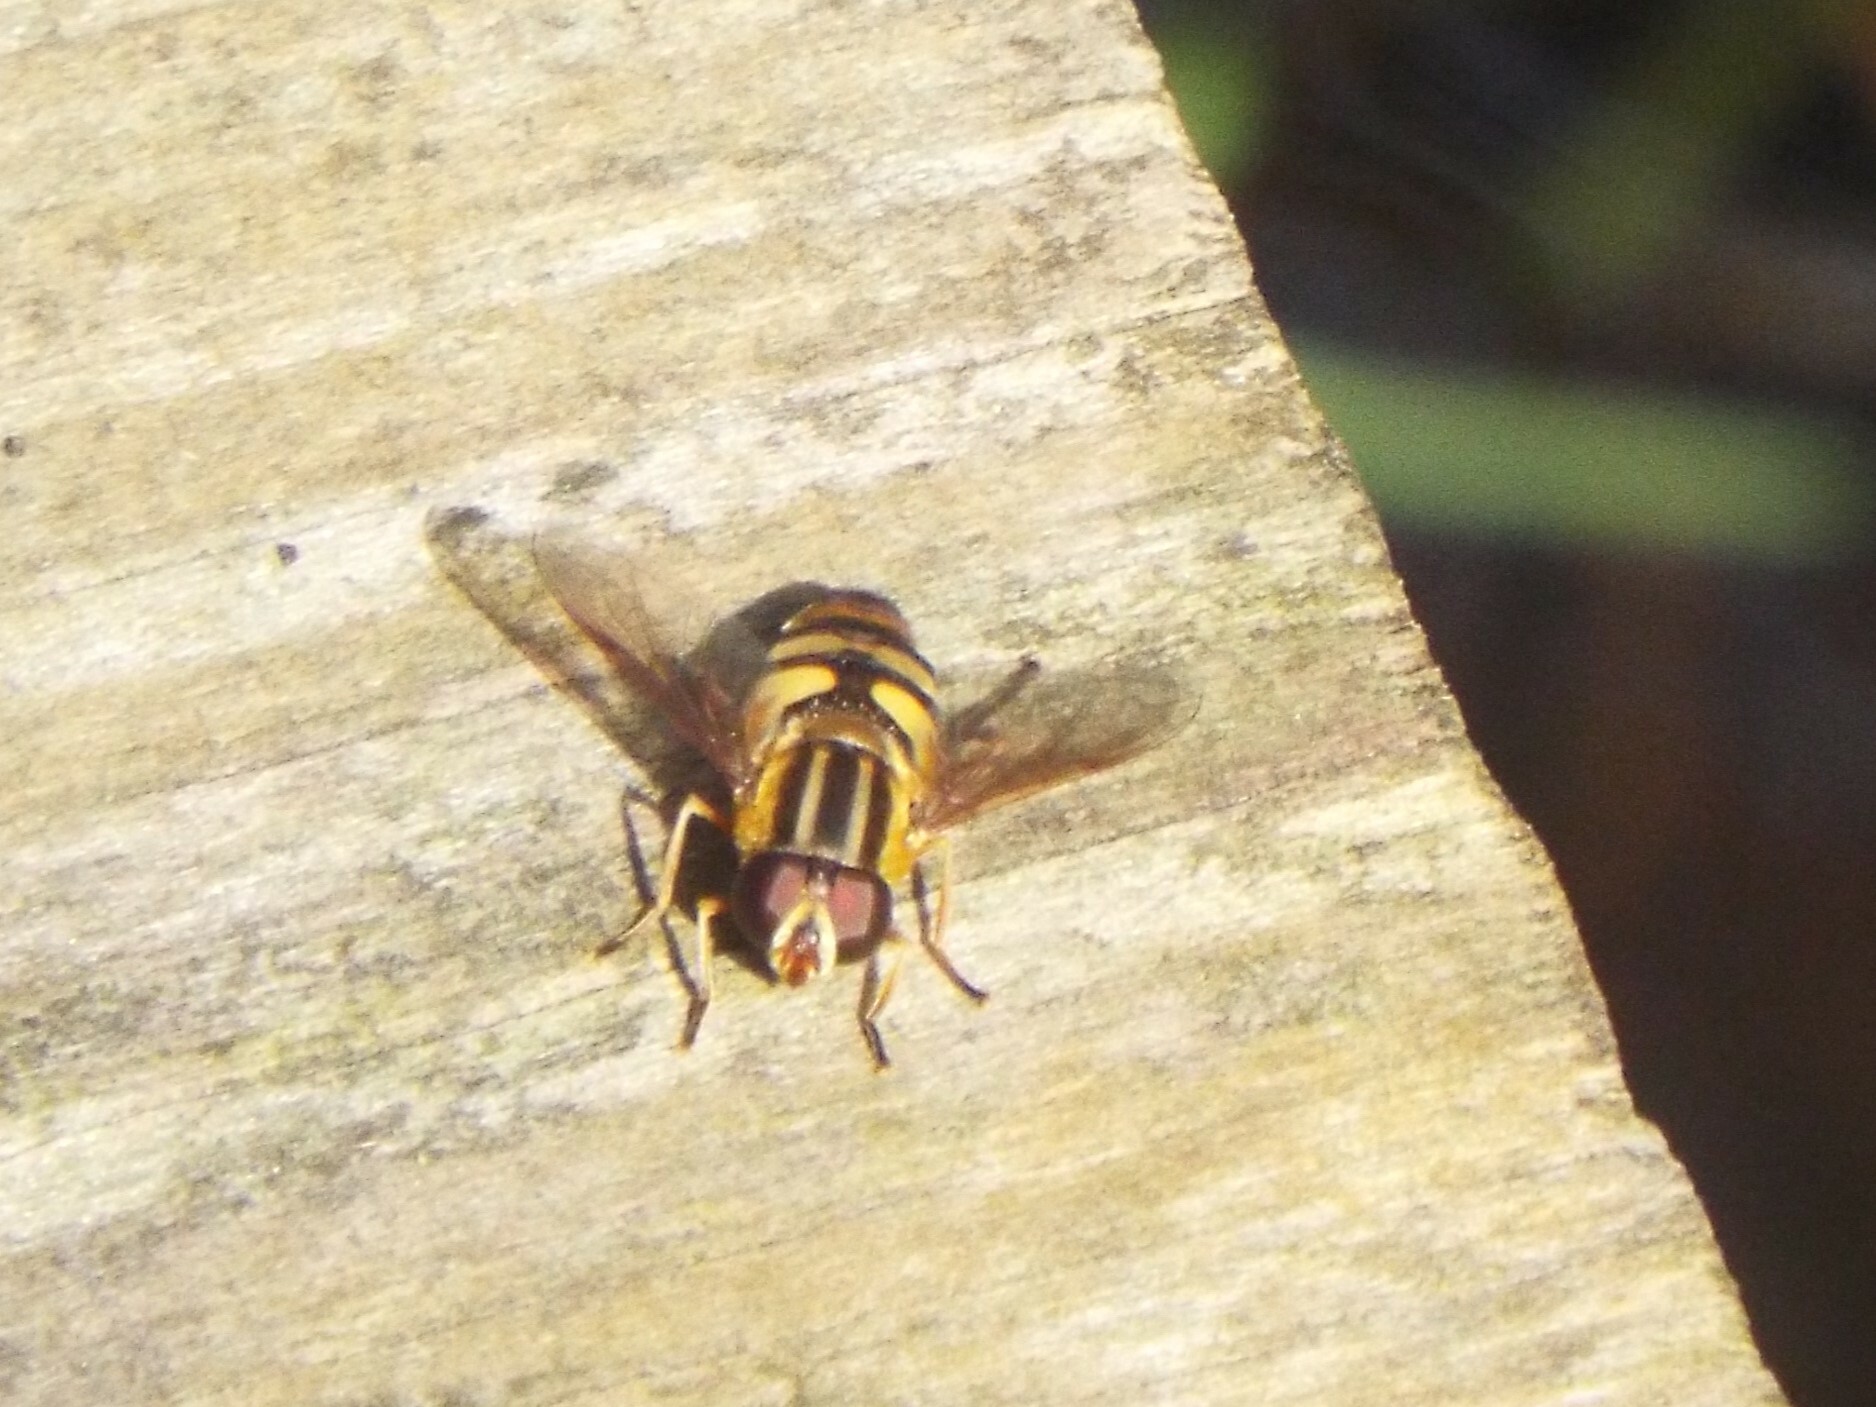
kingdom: Animalia
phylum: Arthropoda
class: Insecta
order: Diptera
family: Syrphidae
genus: Helophilus
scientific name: Helophilus fasciatus
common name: Narrow-headed marsh fly
